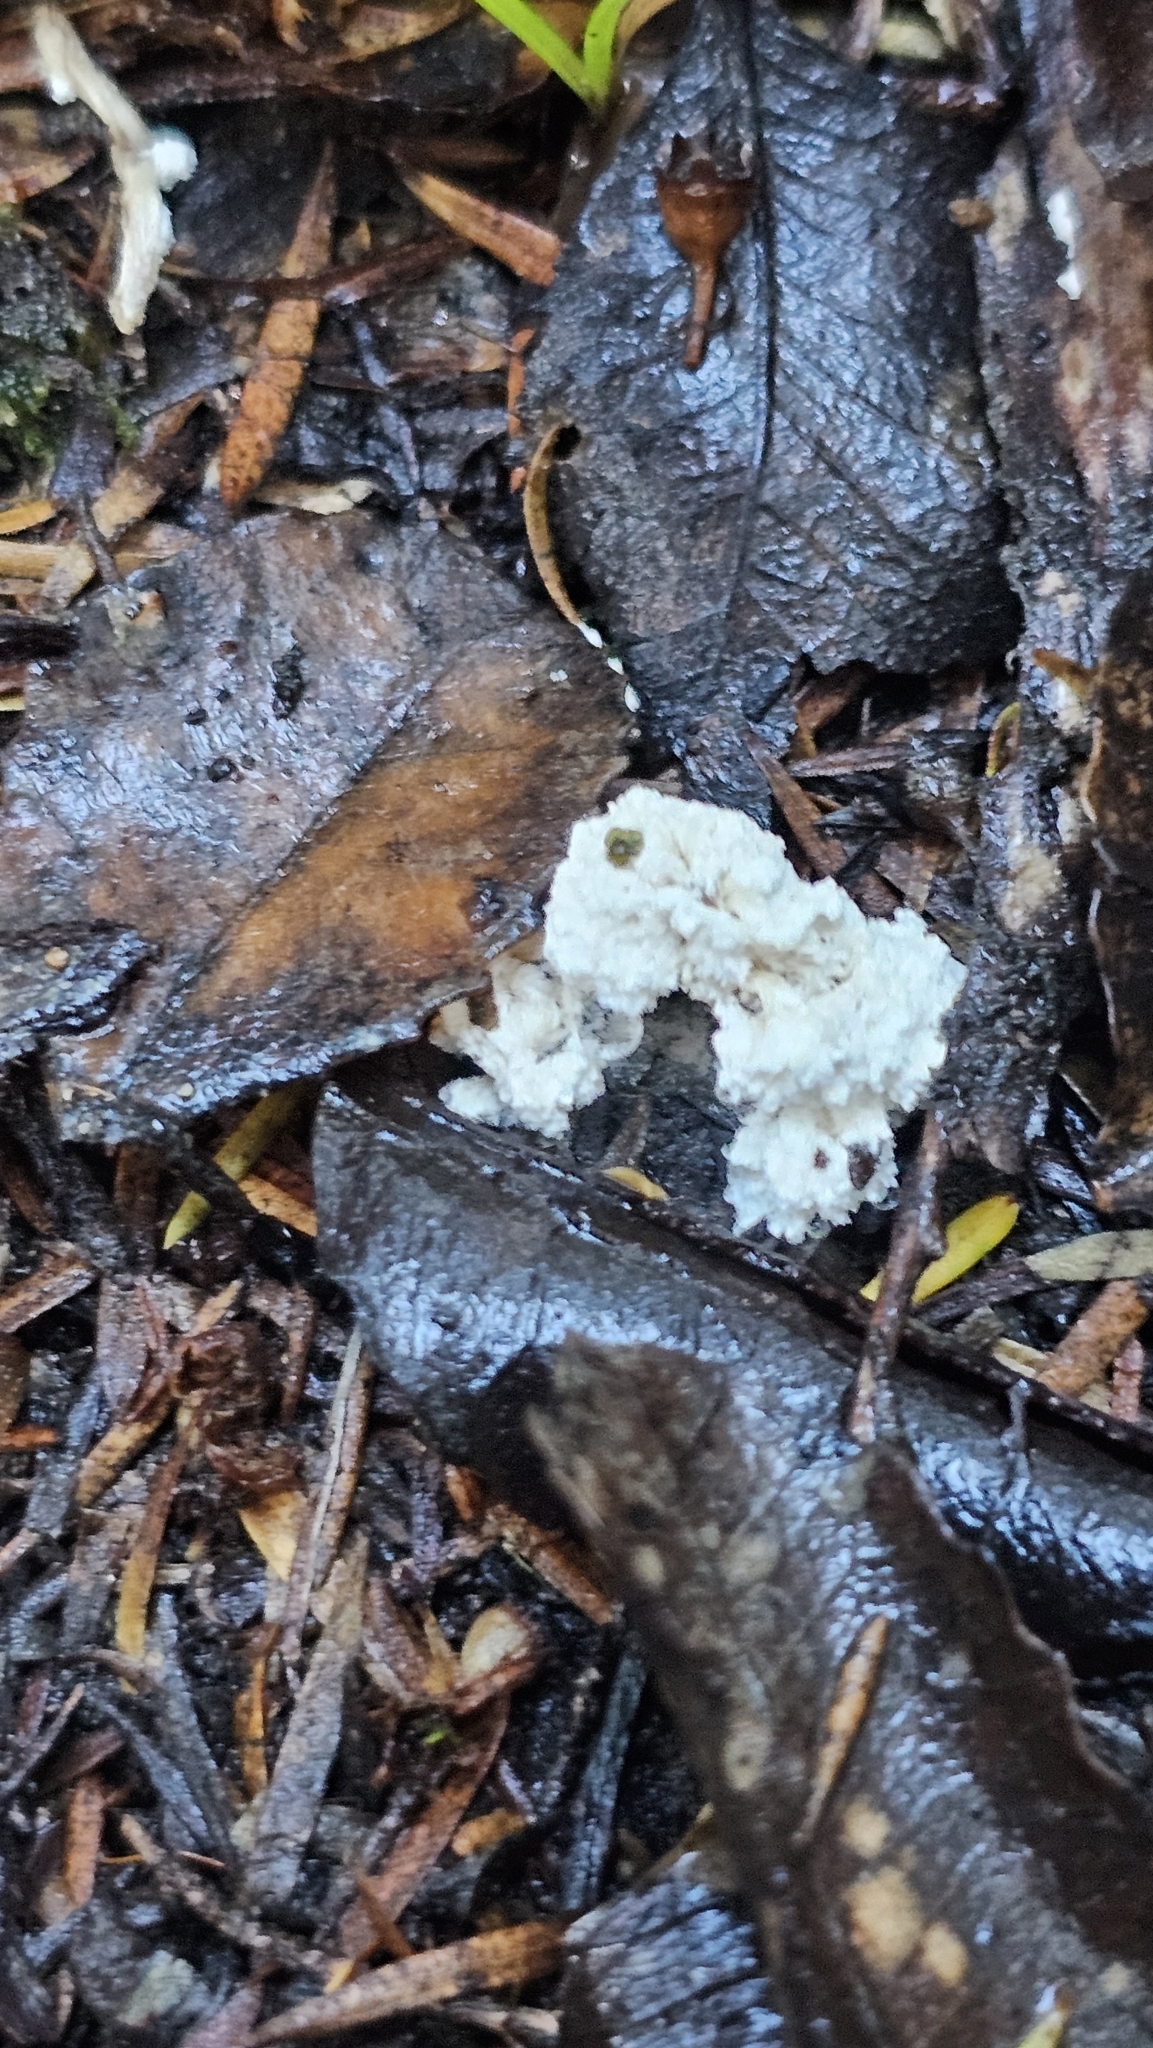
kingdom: Fungi
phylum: Ascomycota
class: Sordariomycetes
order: Hypocreales
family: Cordycipitaceae
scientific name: Cordycipitaceae
